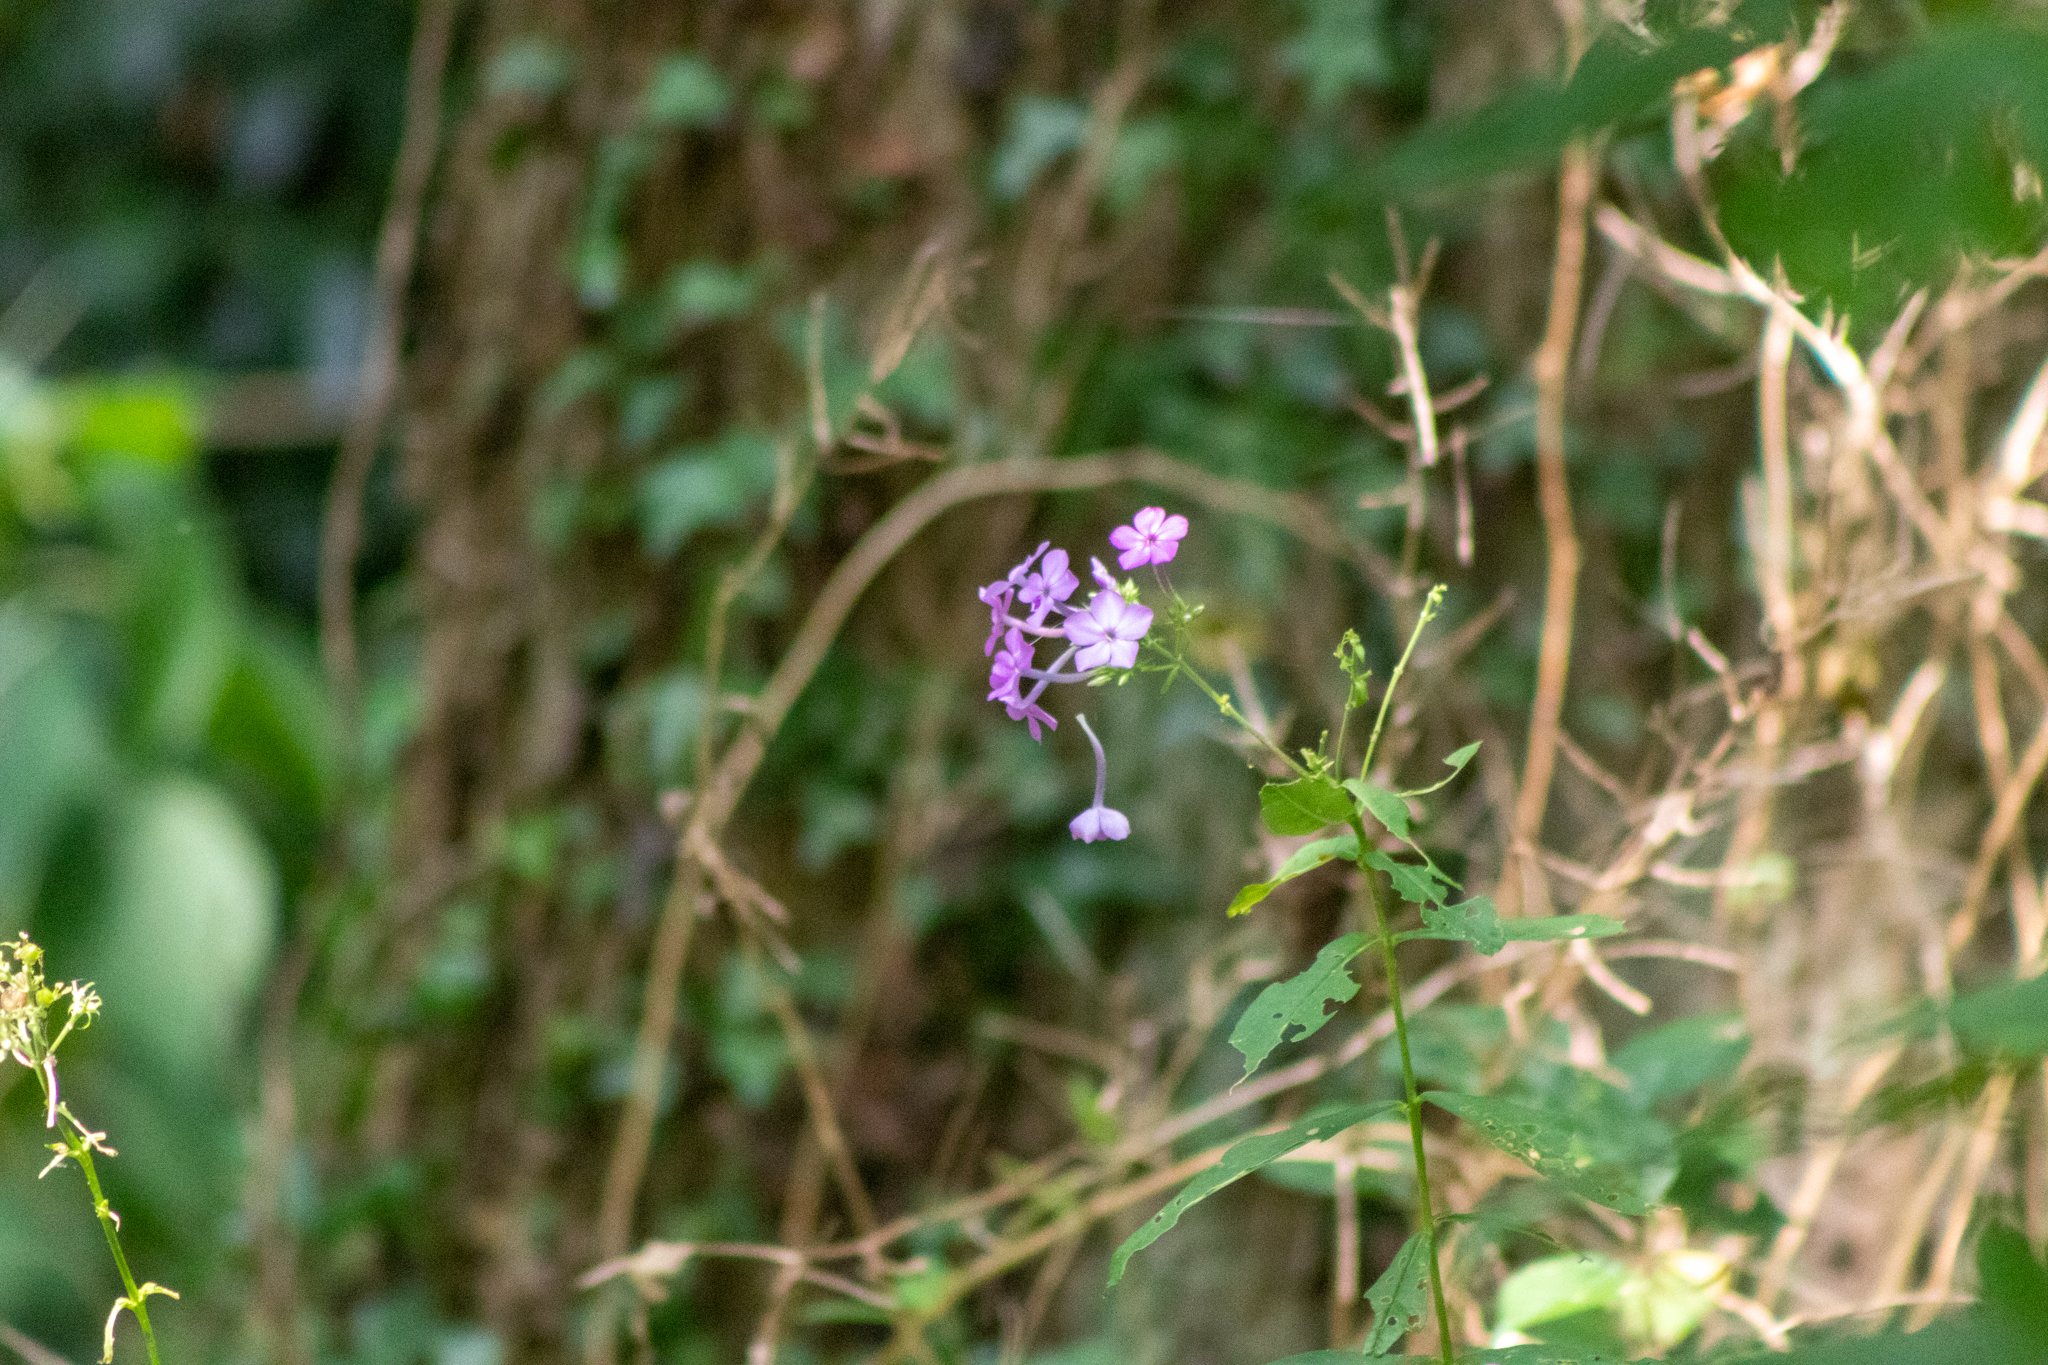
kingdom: Plantae
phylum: Tracheophyta
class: Magnoliopsida
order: Ericales
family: Polemoniaceae
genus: Phlox
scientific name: Phlox paniculata
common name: Fall phlox
